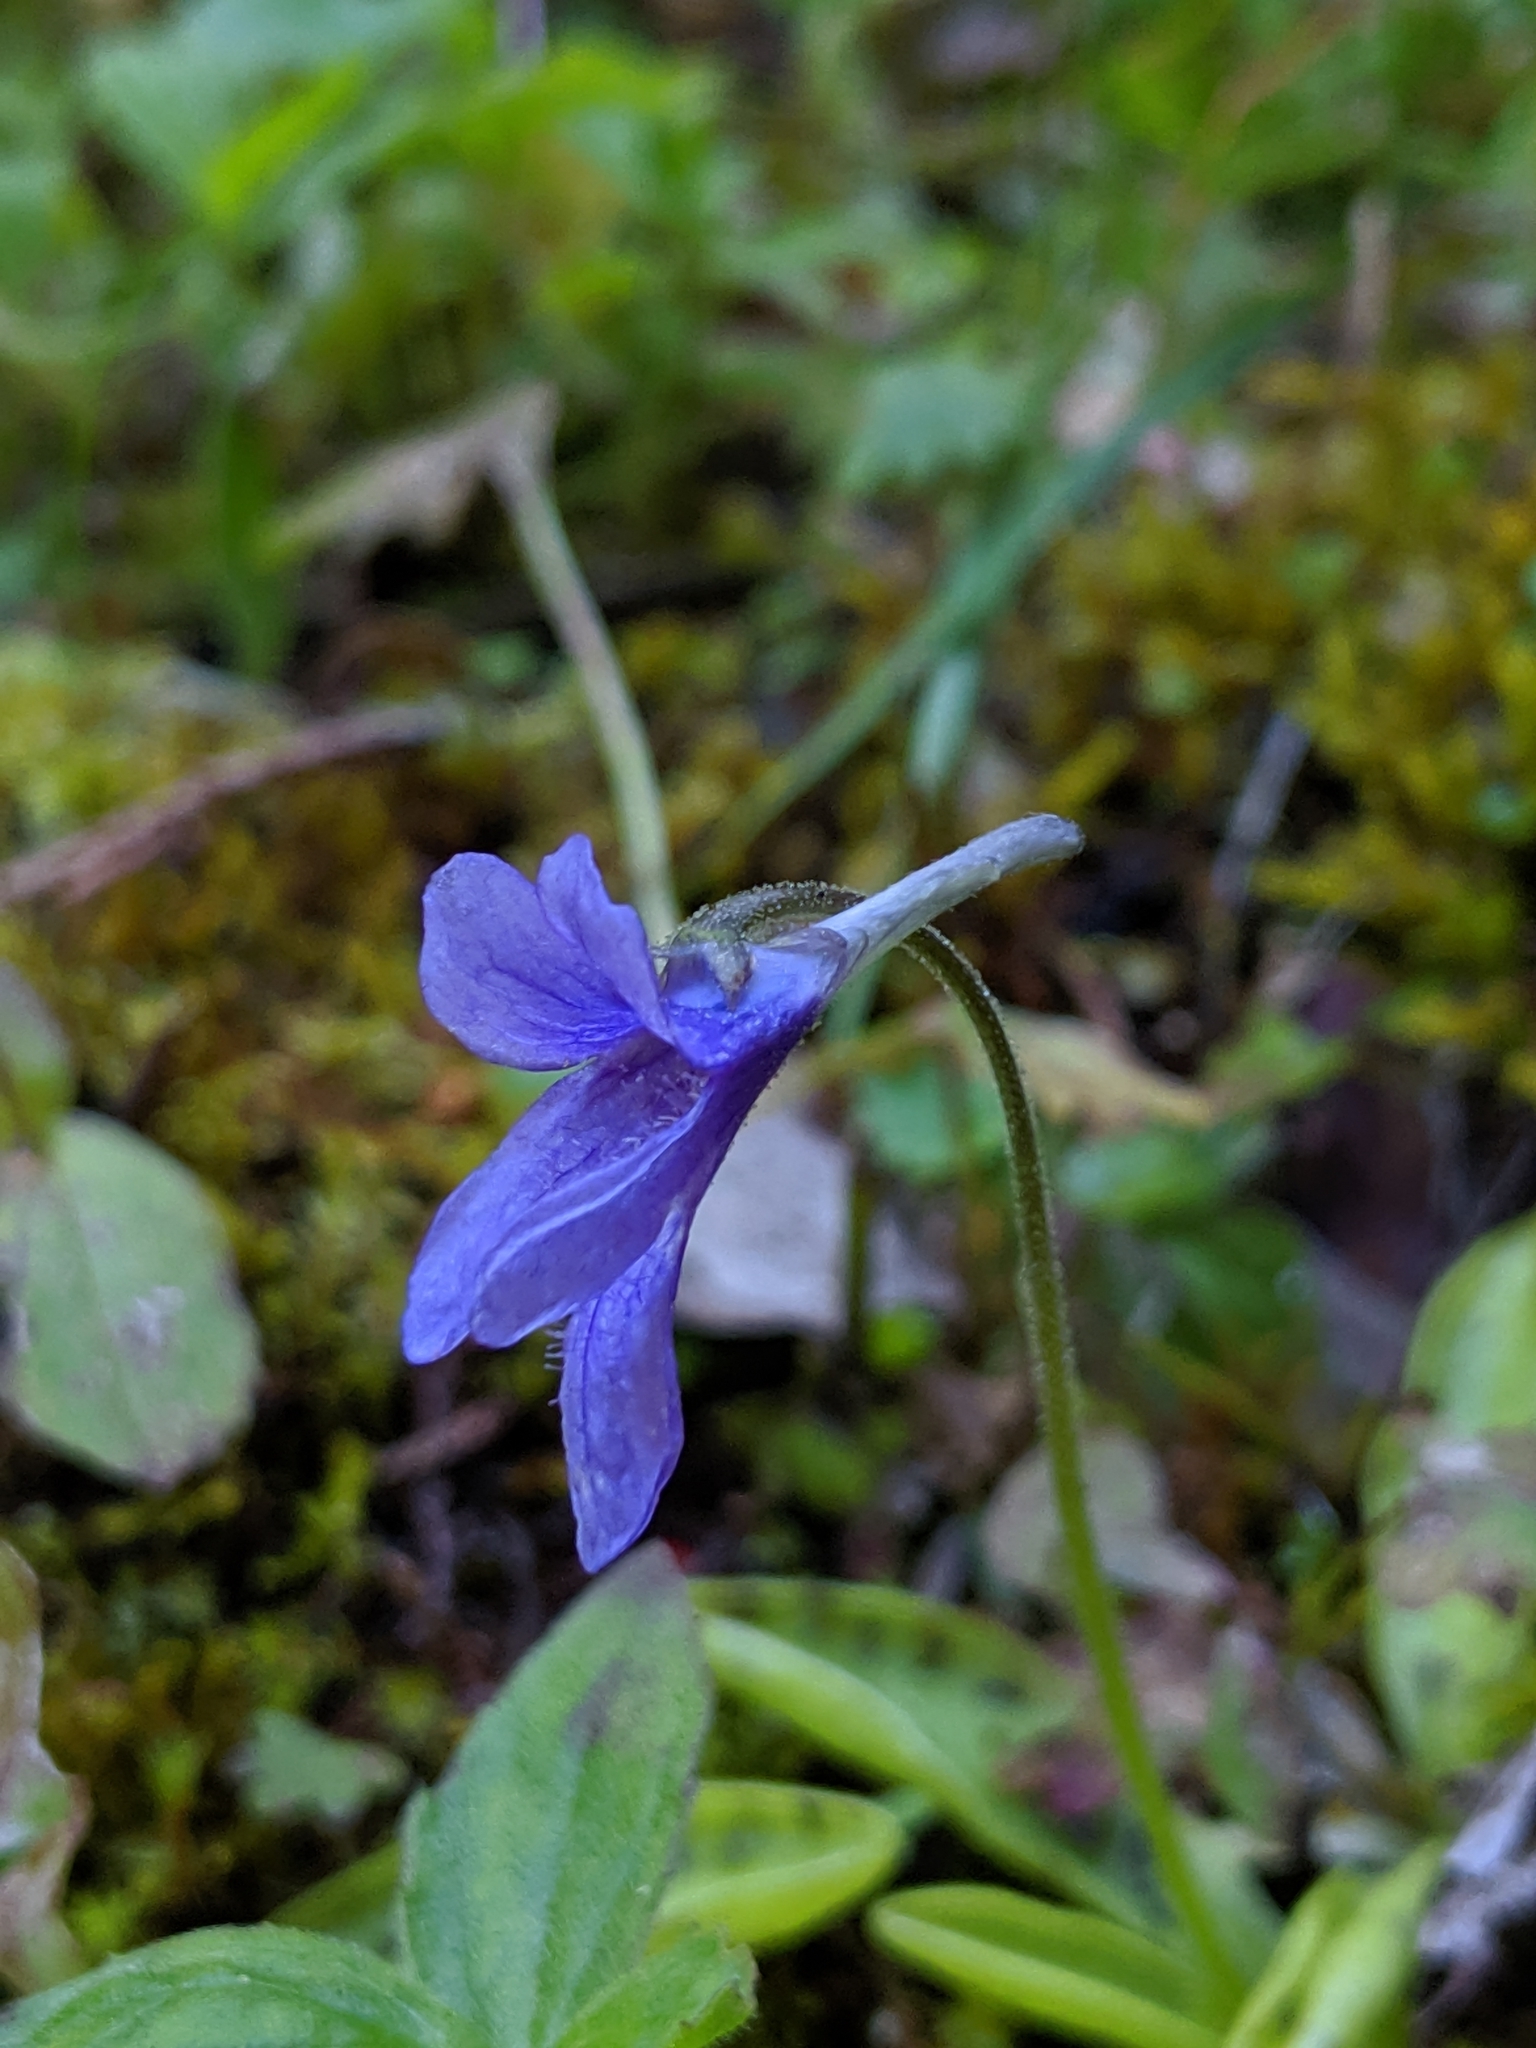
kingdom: Plantae
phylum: Tracheophyta
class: Magnoliopsida
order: Lamiales
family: Lentibulariaceae
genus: Pinguicula
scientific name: Pinguicula macroceras
